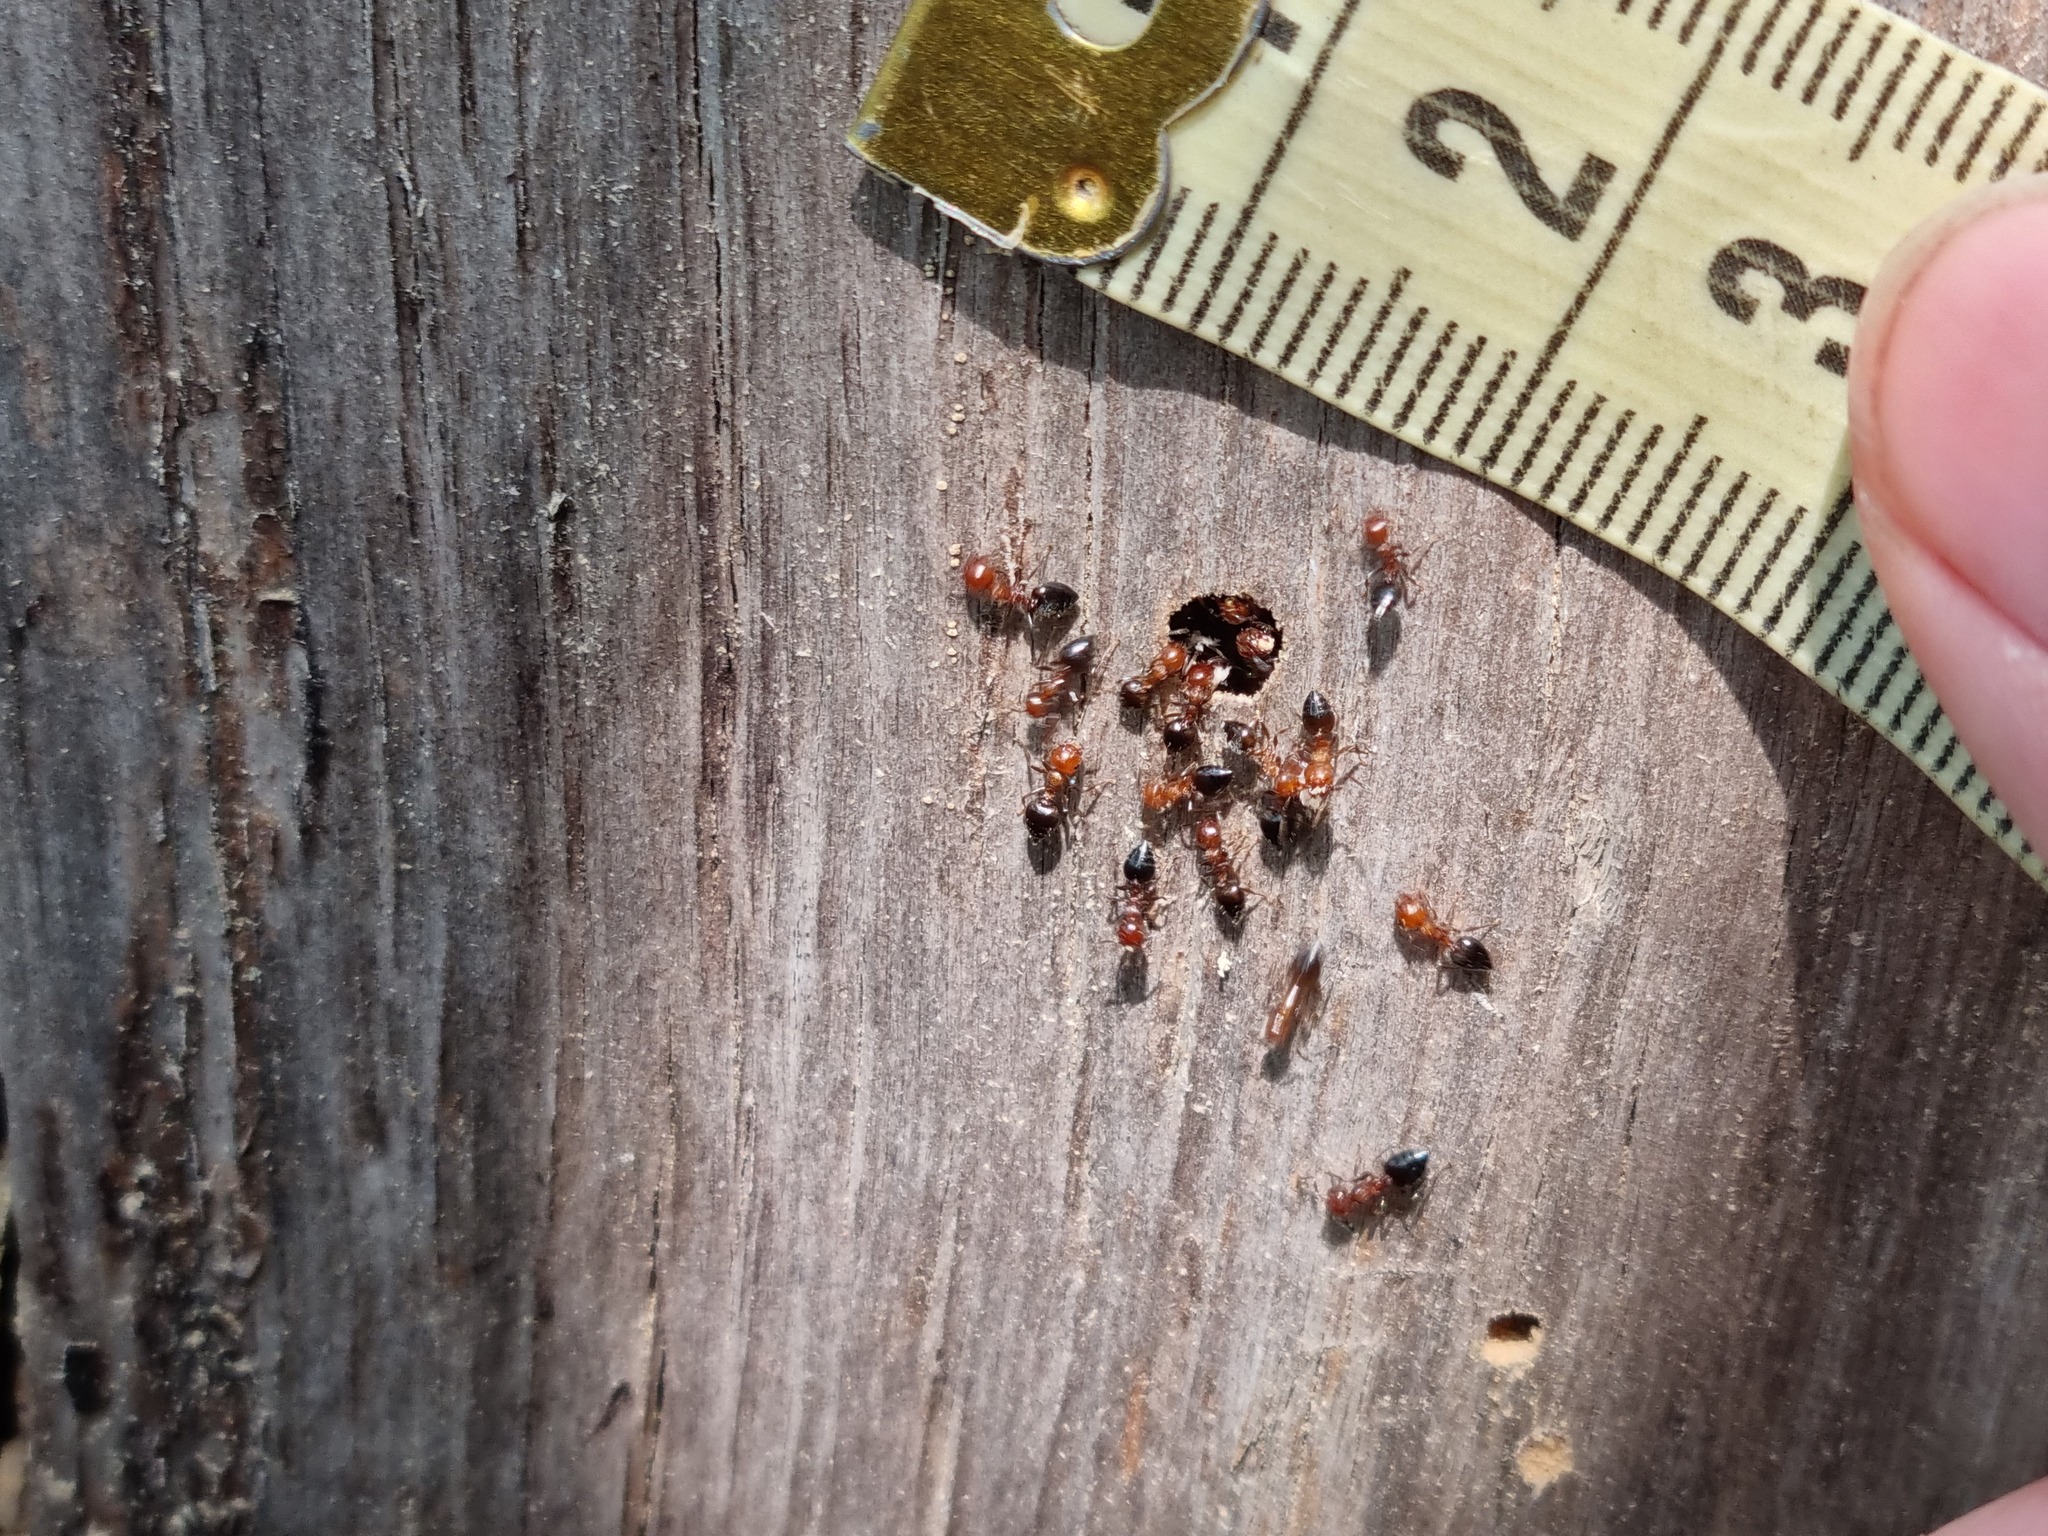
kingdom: Animalia
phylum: Arthropoda
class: Insecta
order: Hymenoptera
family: Formicidae
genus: Crematogaster
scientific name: Crematogaster schmidti
